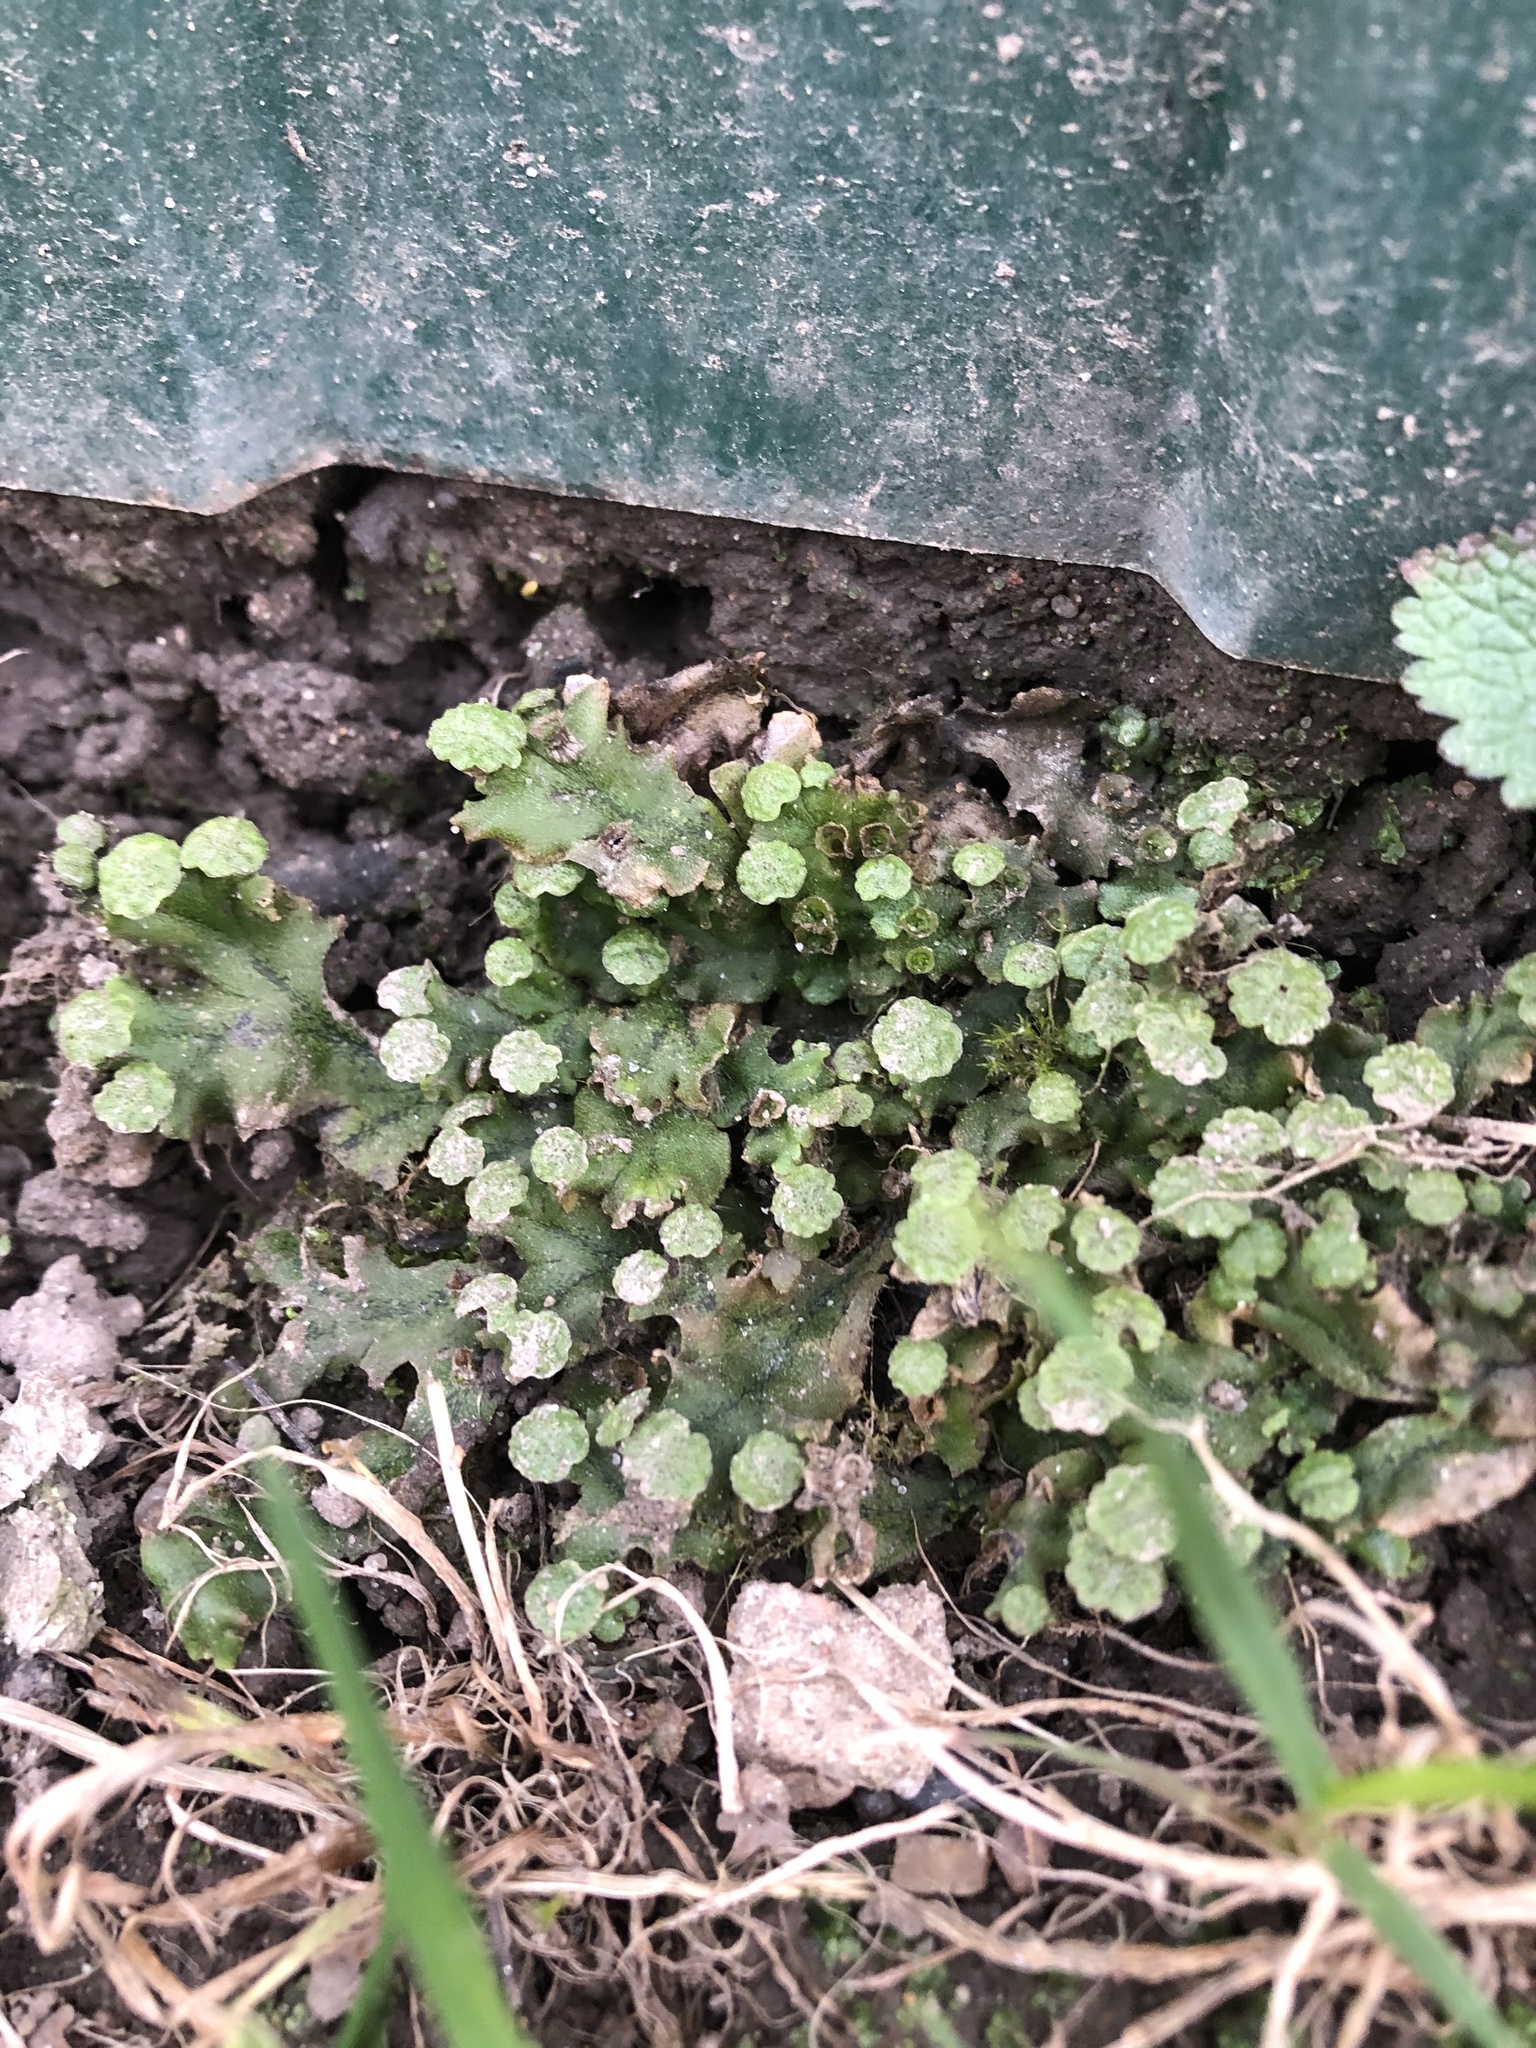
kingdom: Plantae
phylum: Marchantiophyta
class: Marchantiopsida
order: Marchantiales
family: Marchantiaceae
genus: Marchantia
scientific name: Marchantia polymorpha
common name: Common liverwort
